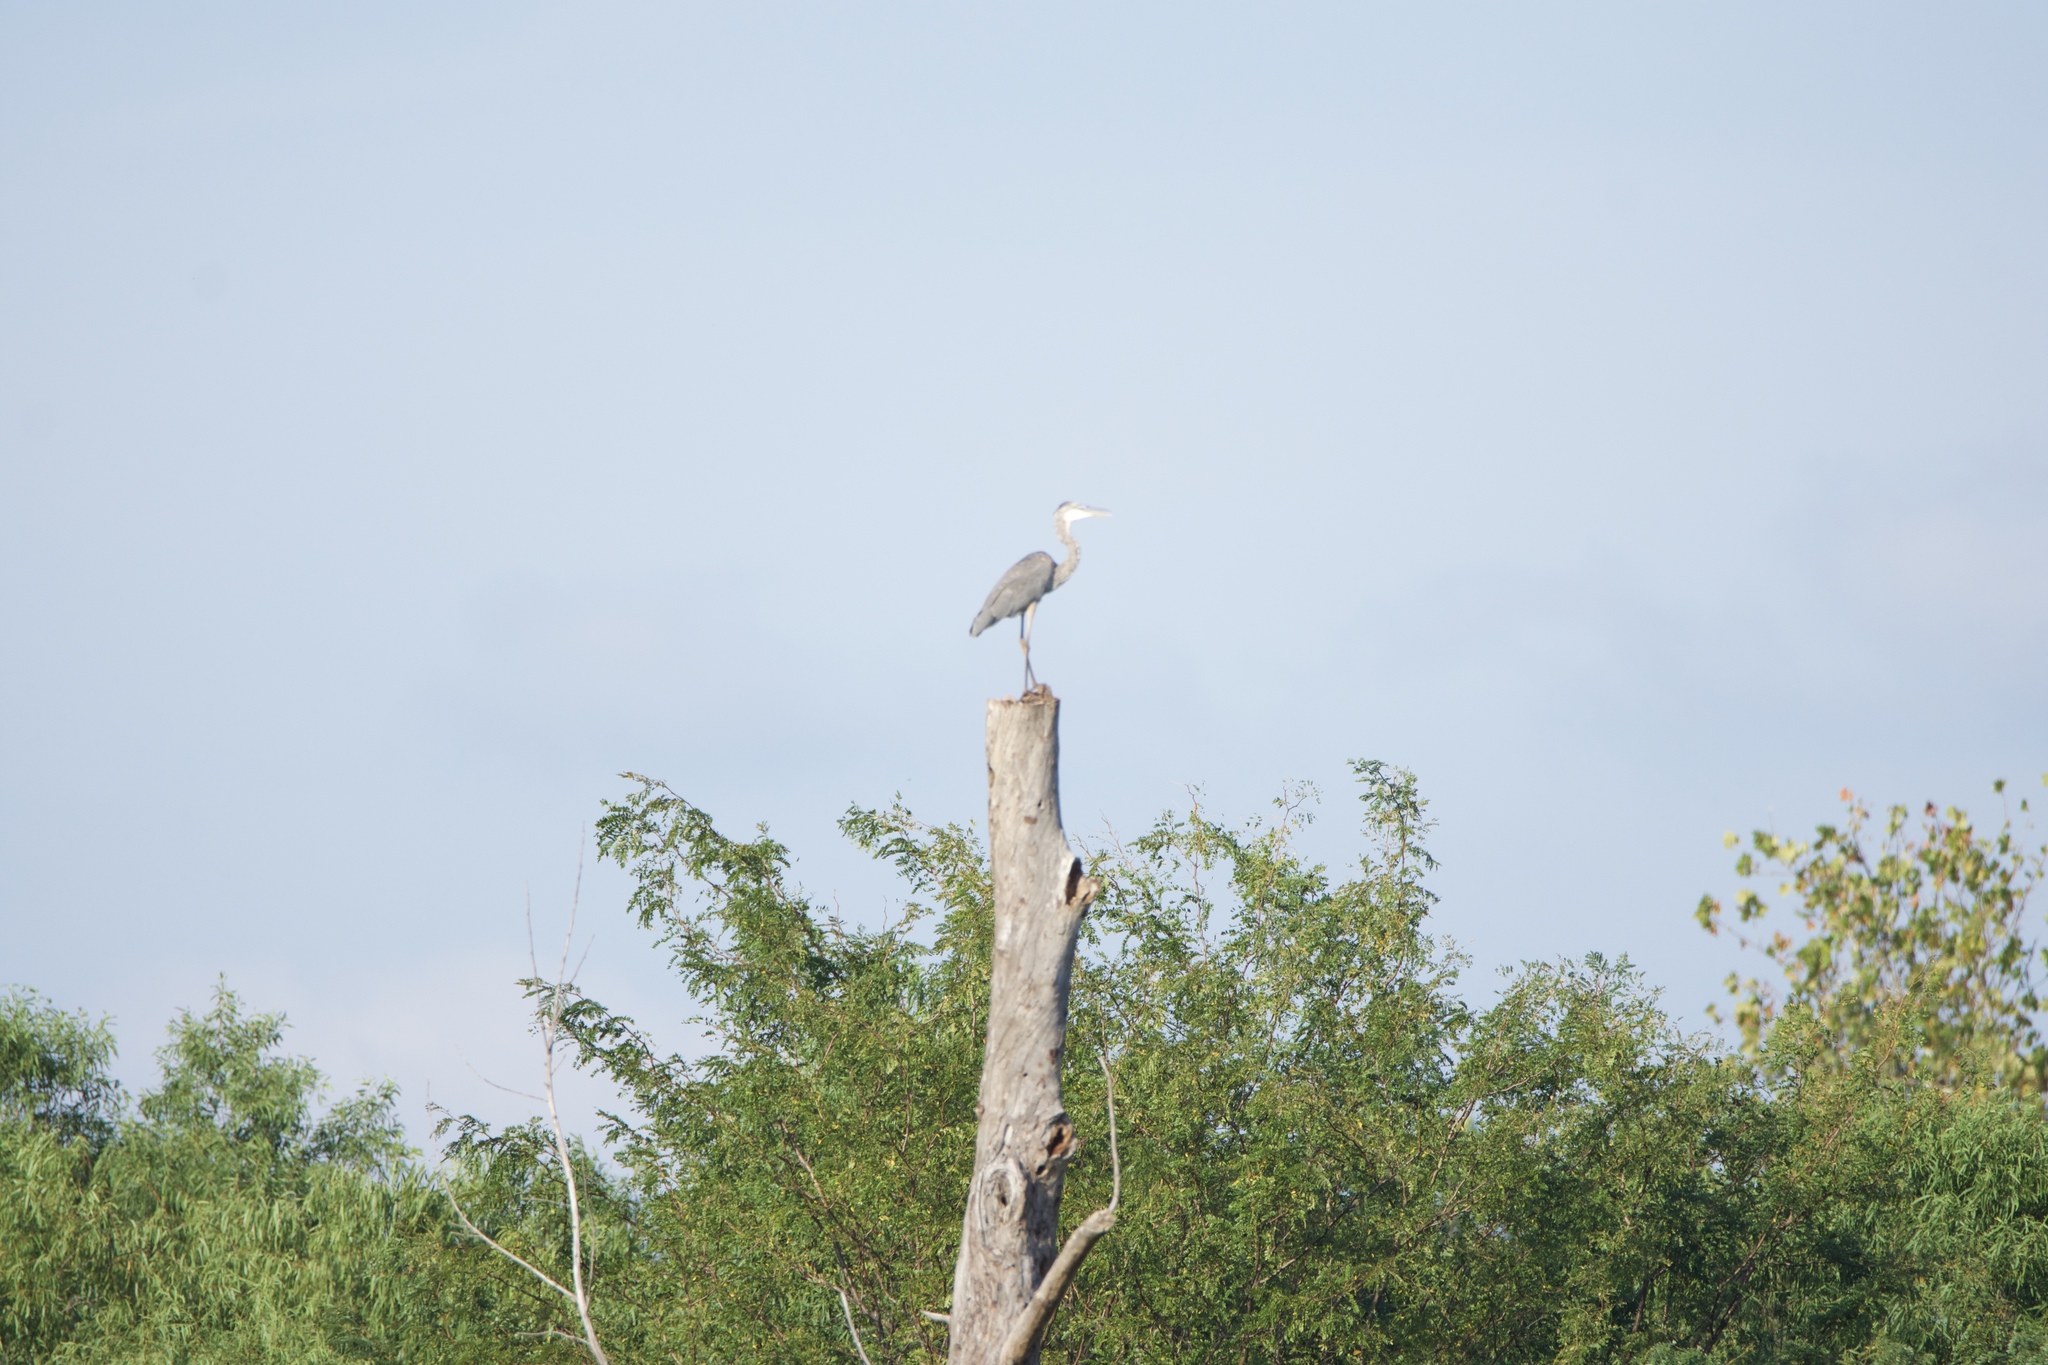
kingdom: Animalia
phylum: Chordata
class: Aves
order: Pelecaniformes
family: Ardeidae
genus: Ardea
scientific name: Ardea herodias
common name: Great blue heron
